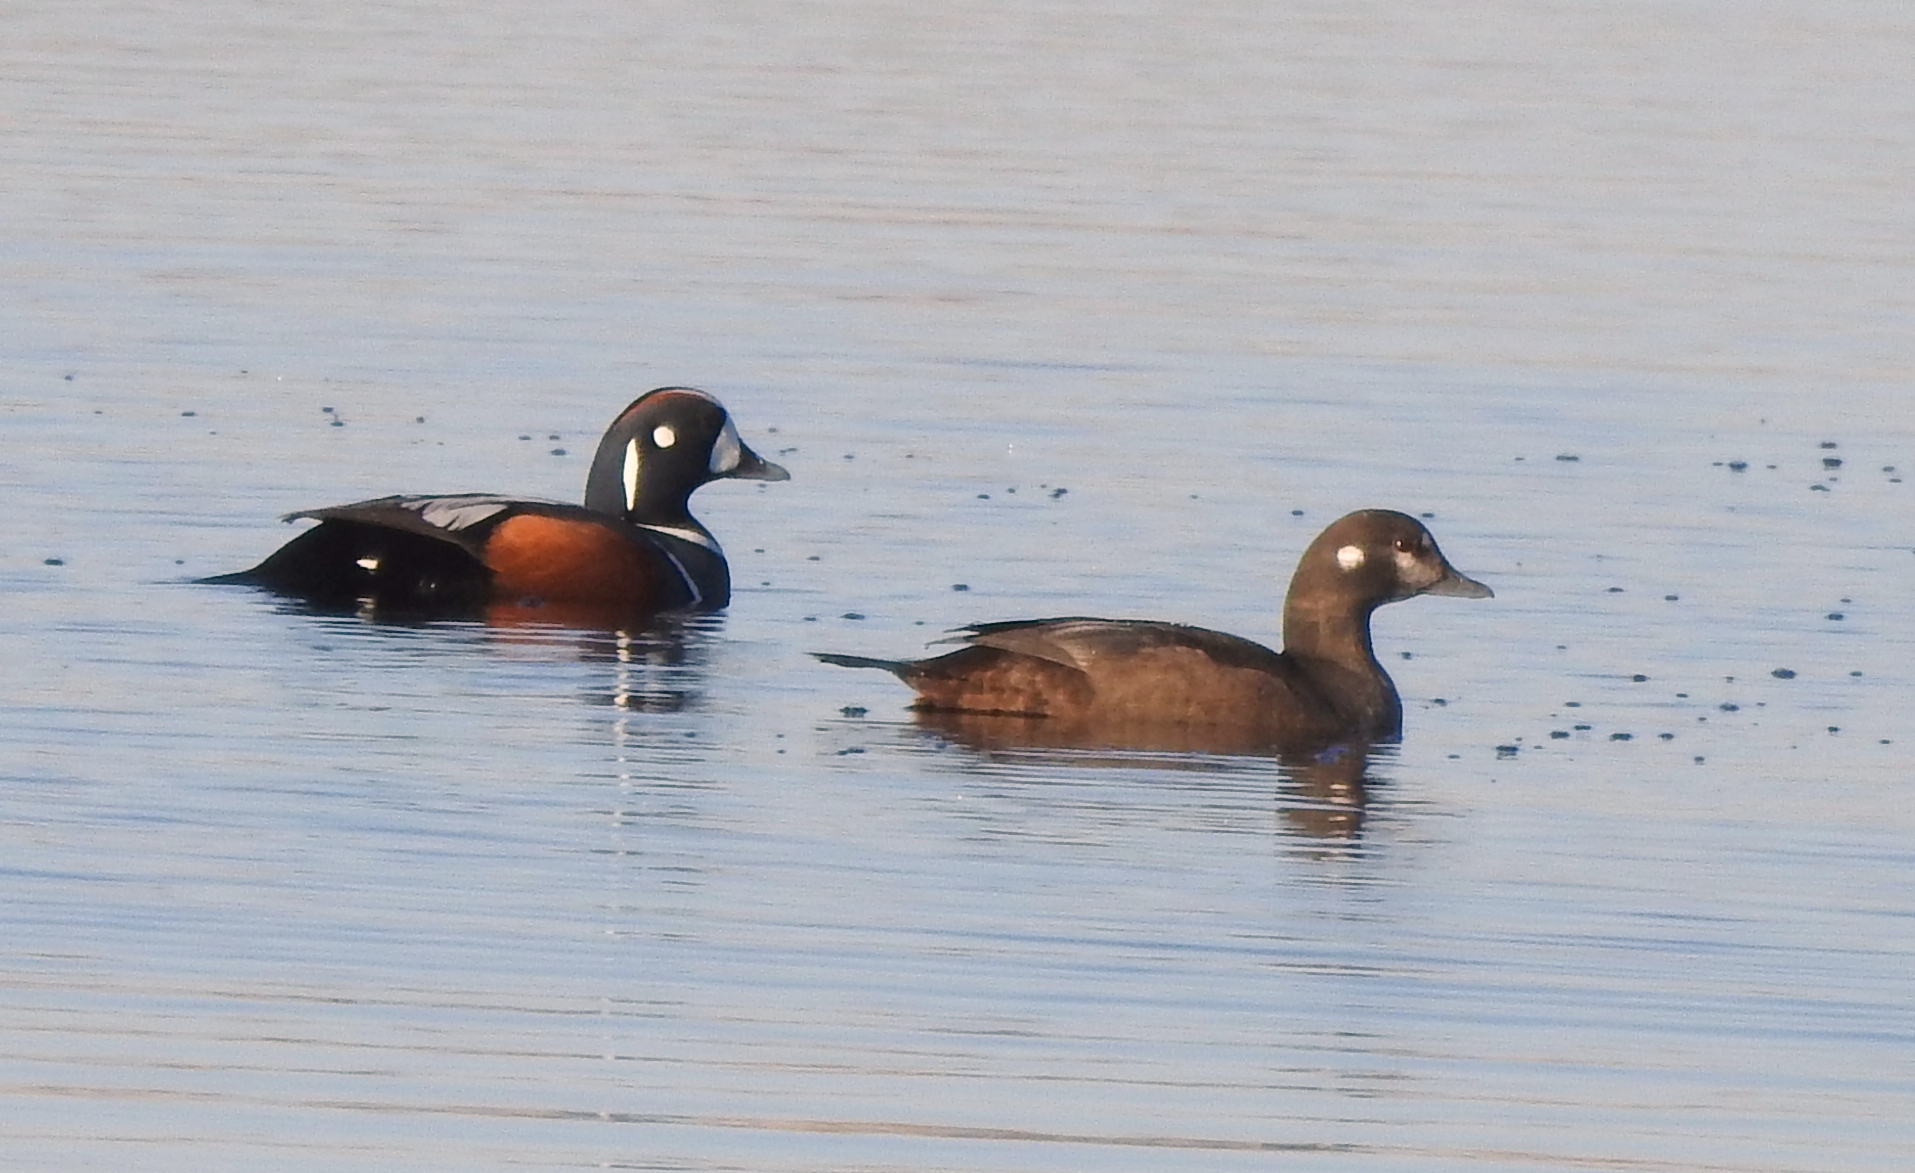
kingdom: Animalia
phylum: Chordata
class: Aves
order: Anseriformes
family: Anatidae
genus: Histrionicus
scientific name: Histrionicus histrionicus
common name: Harlequin duck
